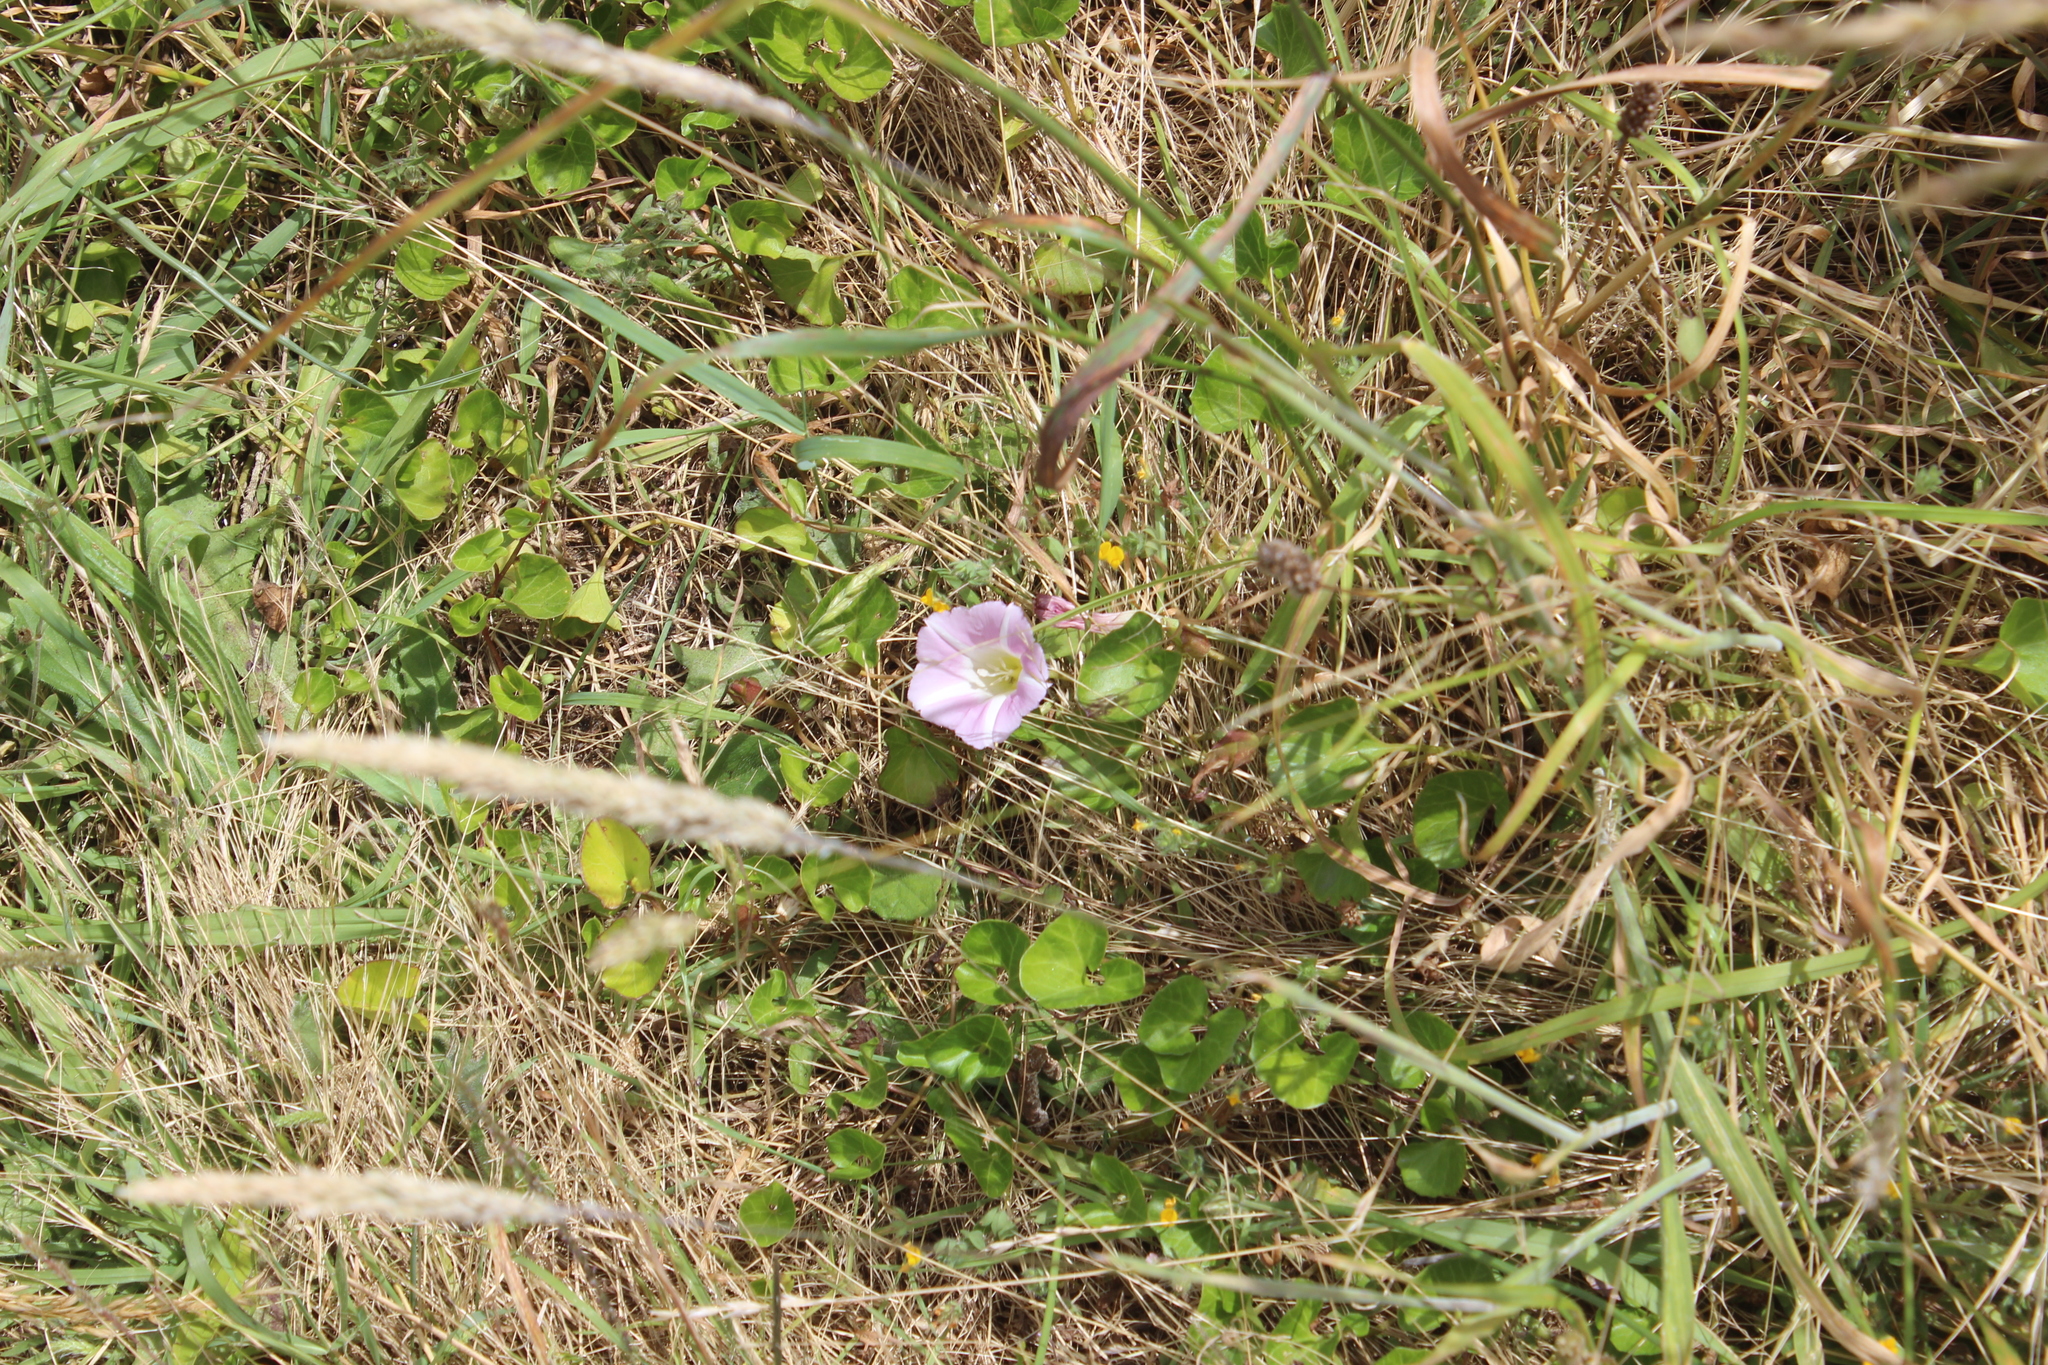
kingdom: Plantae
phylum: Tracheophyta
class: Magnoliopsida
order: Solanales
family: Convolvulaceae
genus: Calystegia
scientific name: Calystegia soldanella
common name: Sea bindweed
